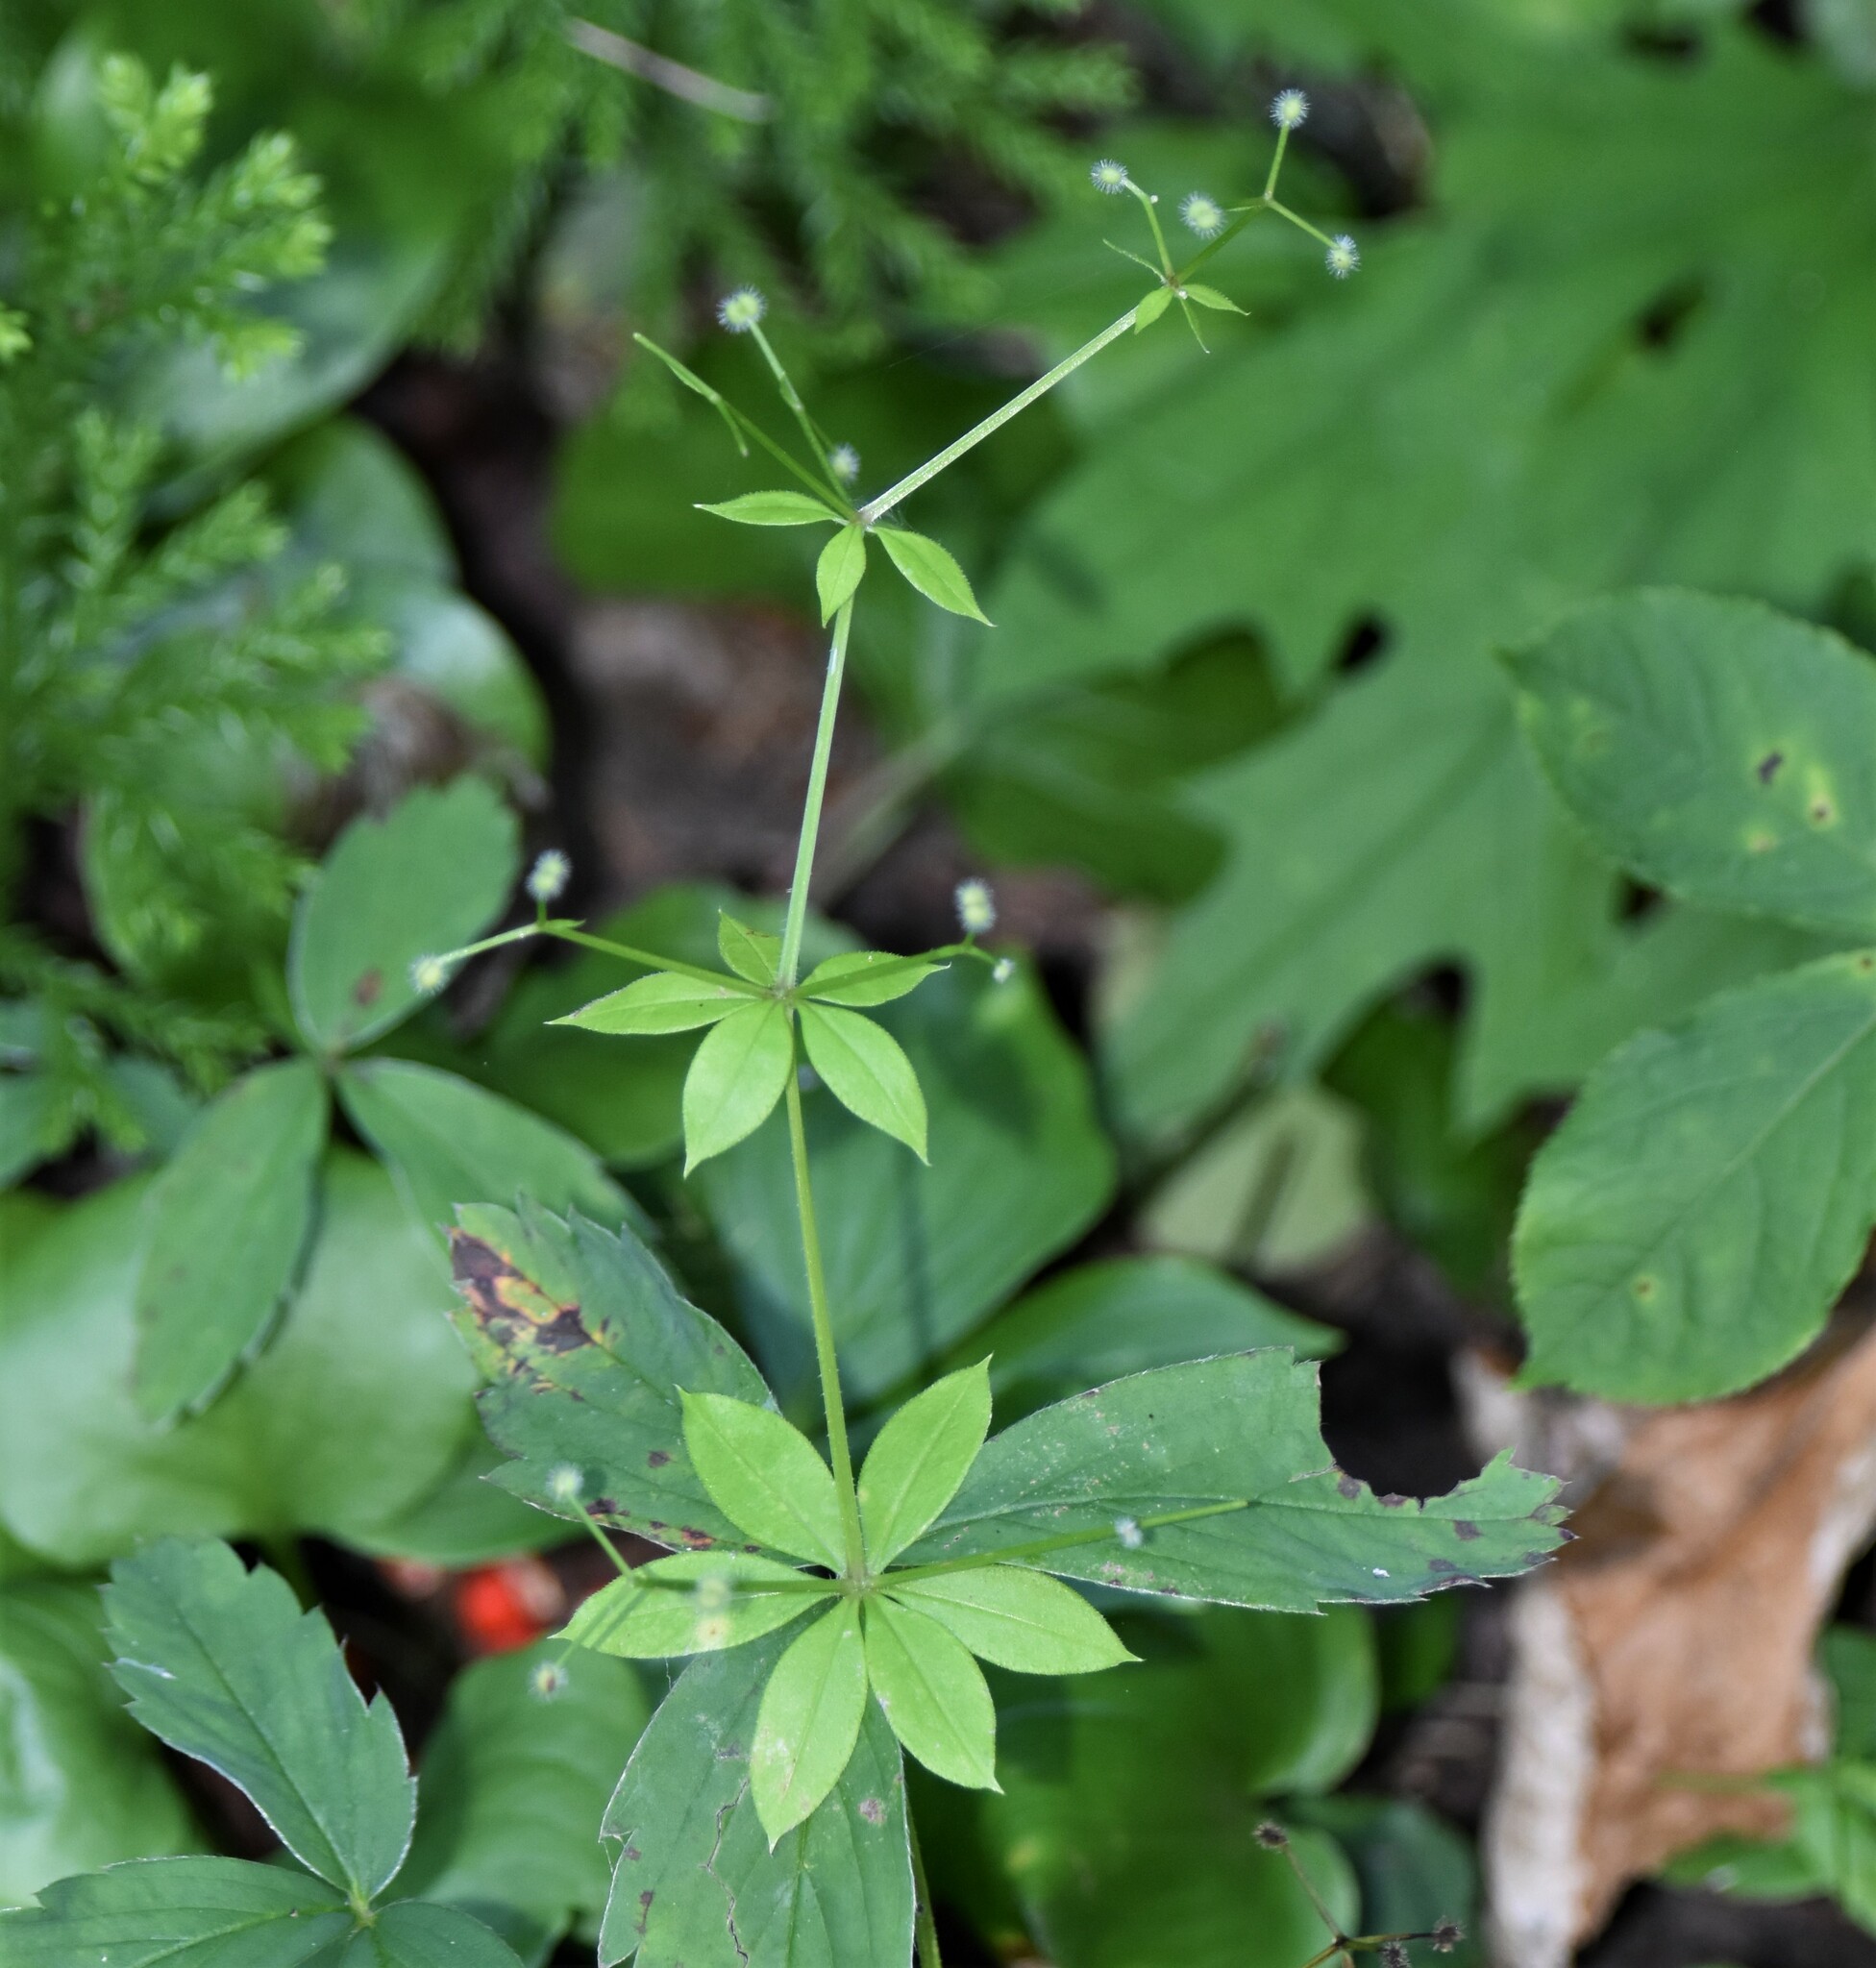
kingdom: Plantae
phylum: Tracheophyta
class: Magnoliopsida
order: Gentianales
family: Rubiaceae
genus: Galium
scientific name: Galium triflorum
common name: Fragrant bedstraw
